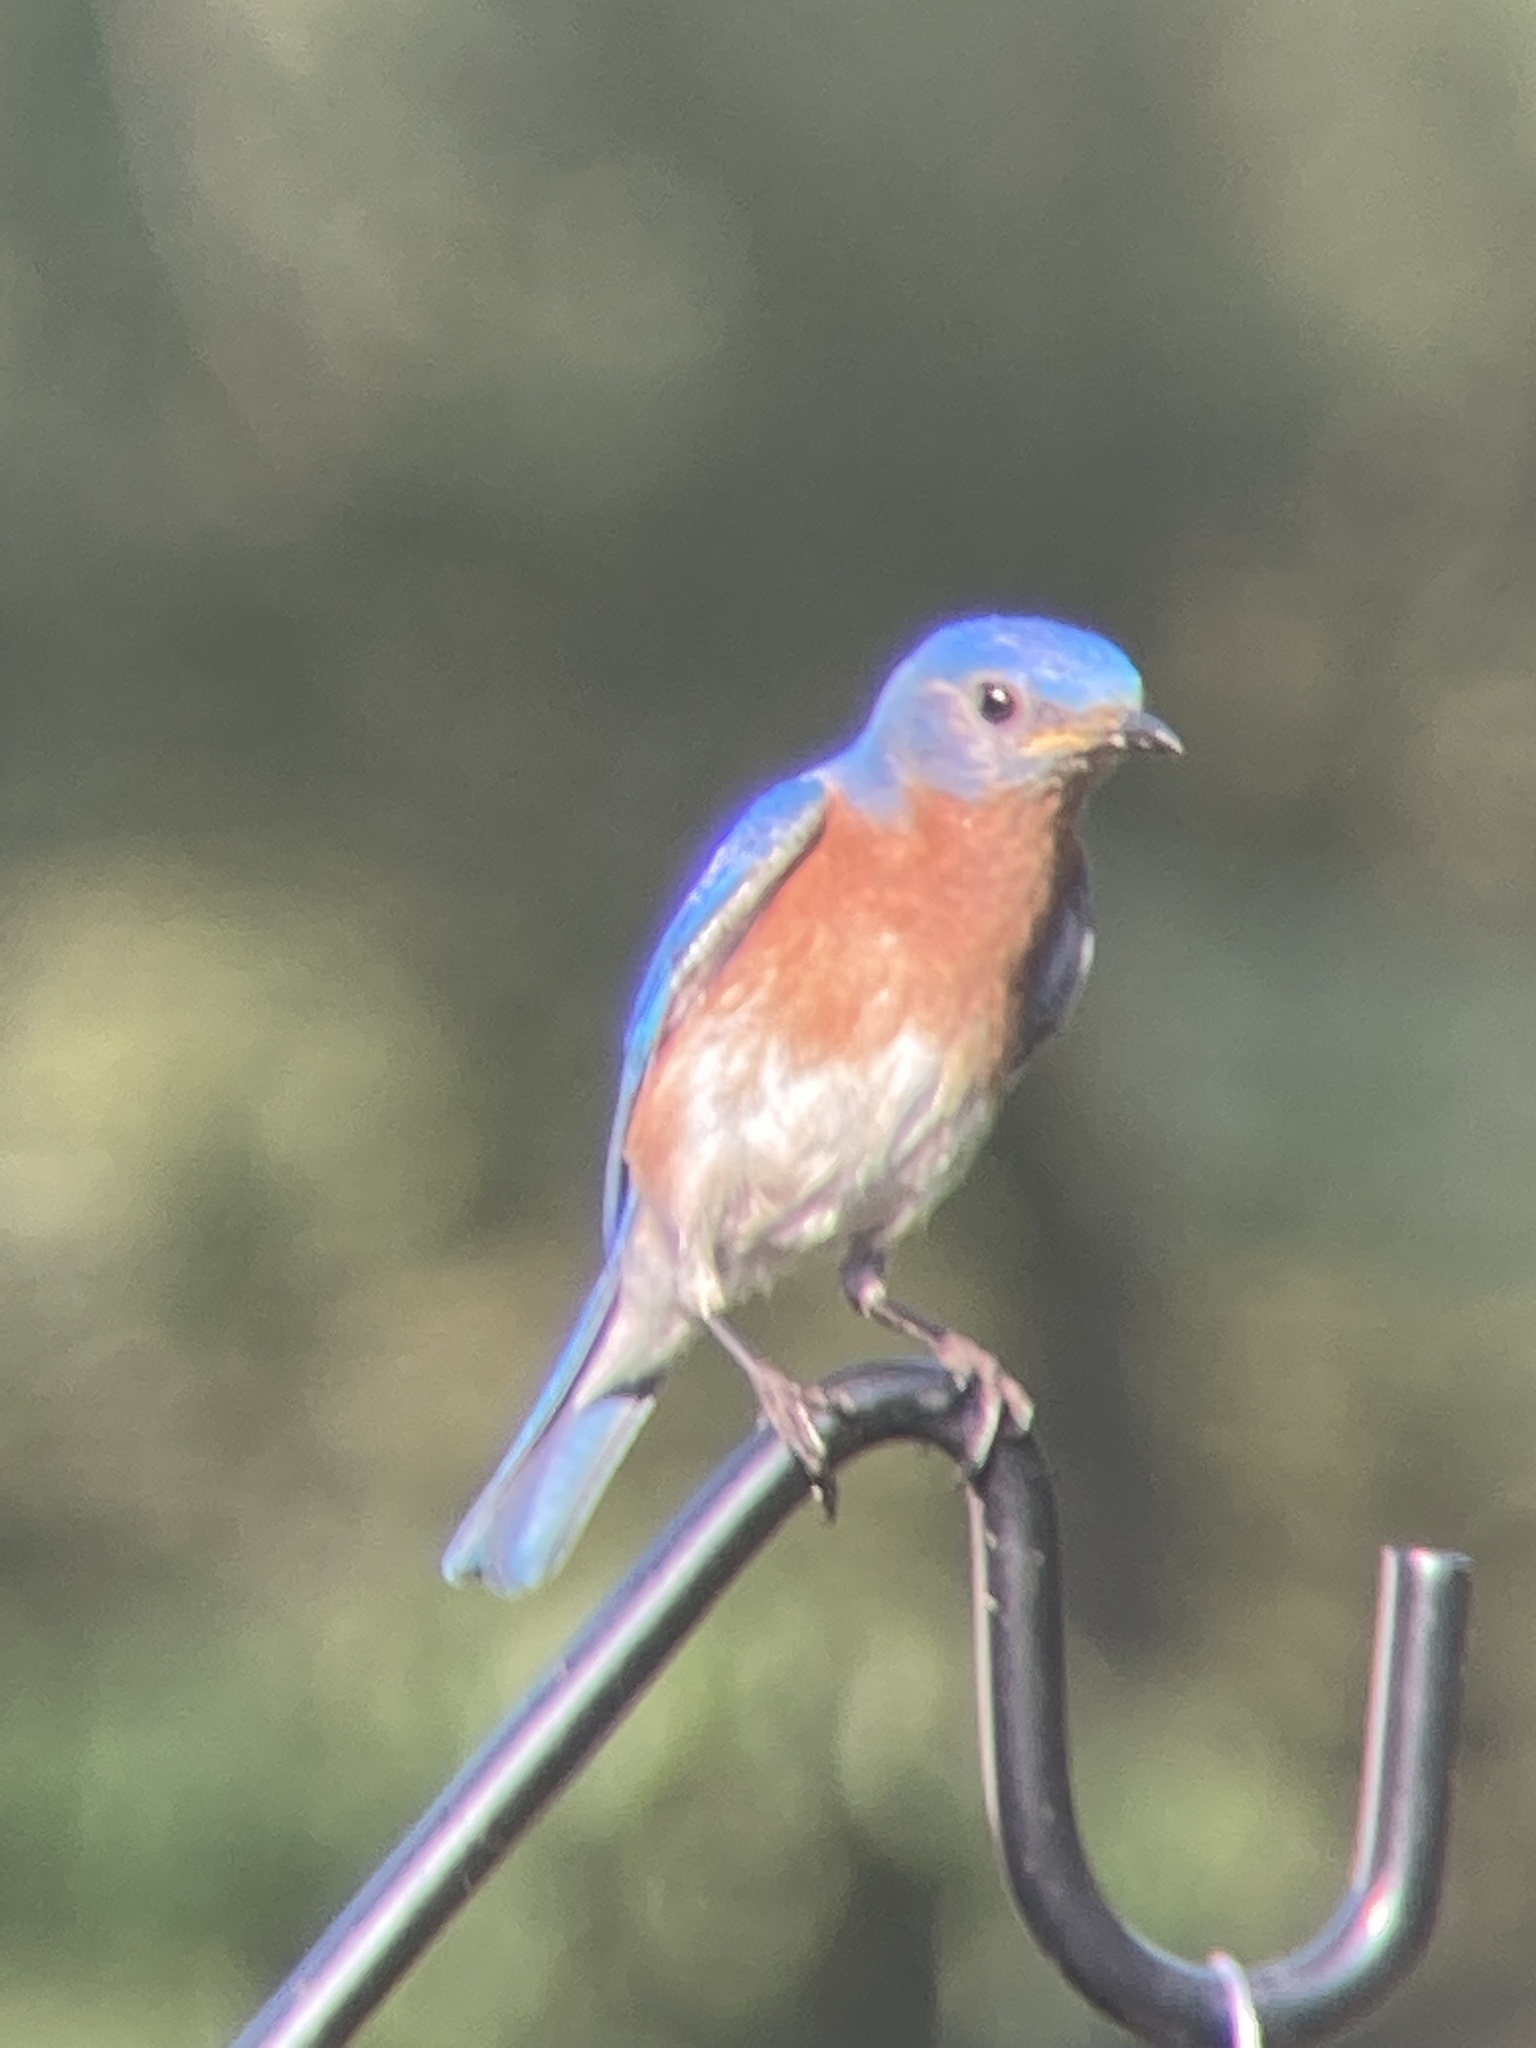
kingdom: Animalia
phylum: Chordata
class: Aves
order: Passeriformes
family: Turdidae
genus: Sialia
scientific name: Sialia sialis
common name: Eastern bluebird
